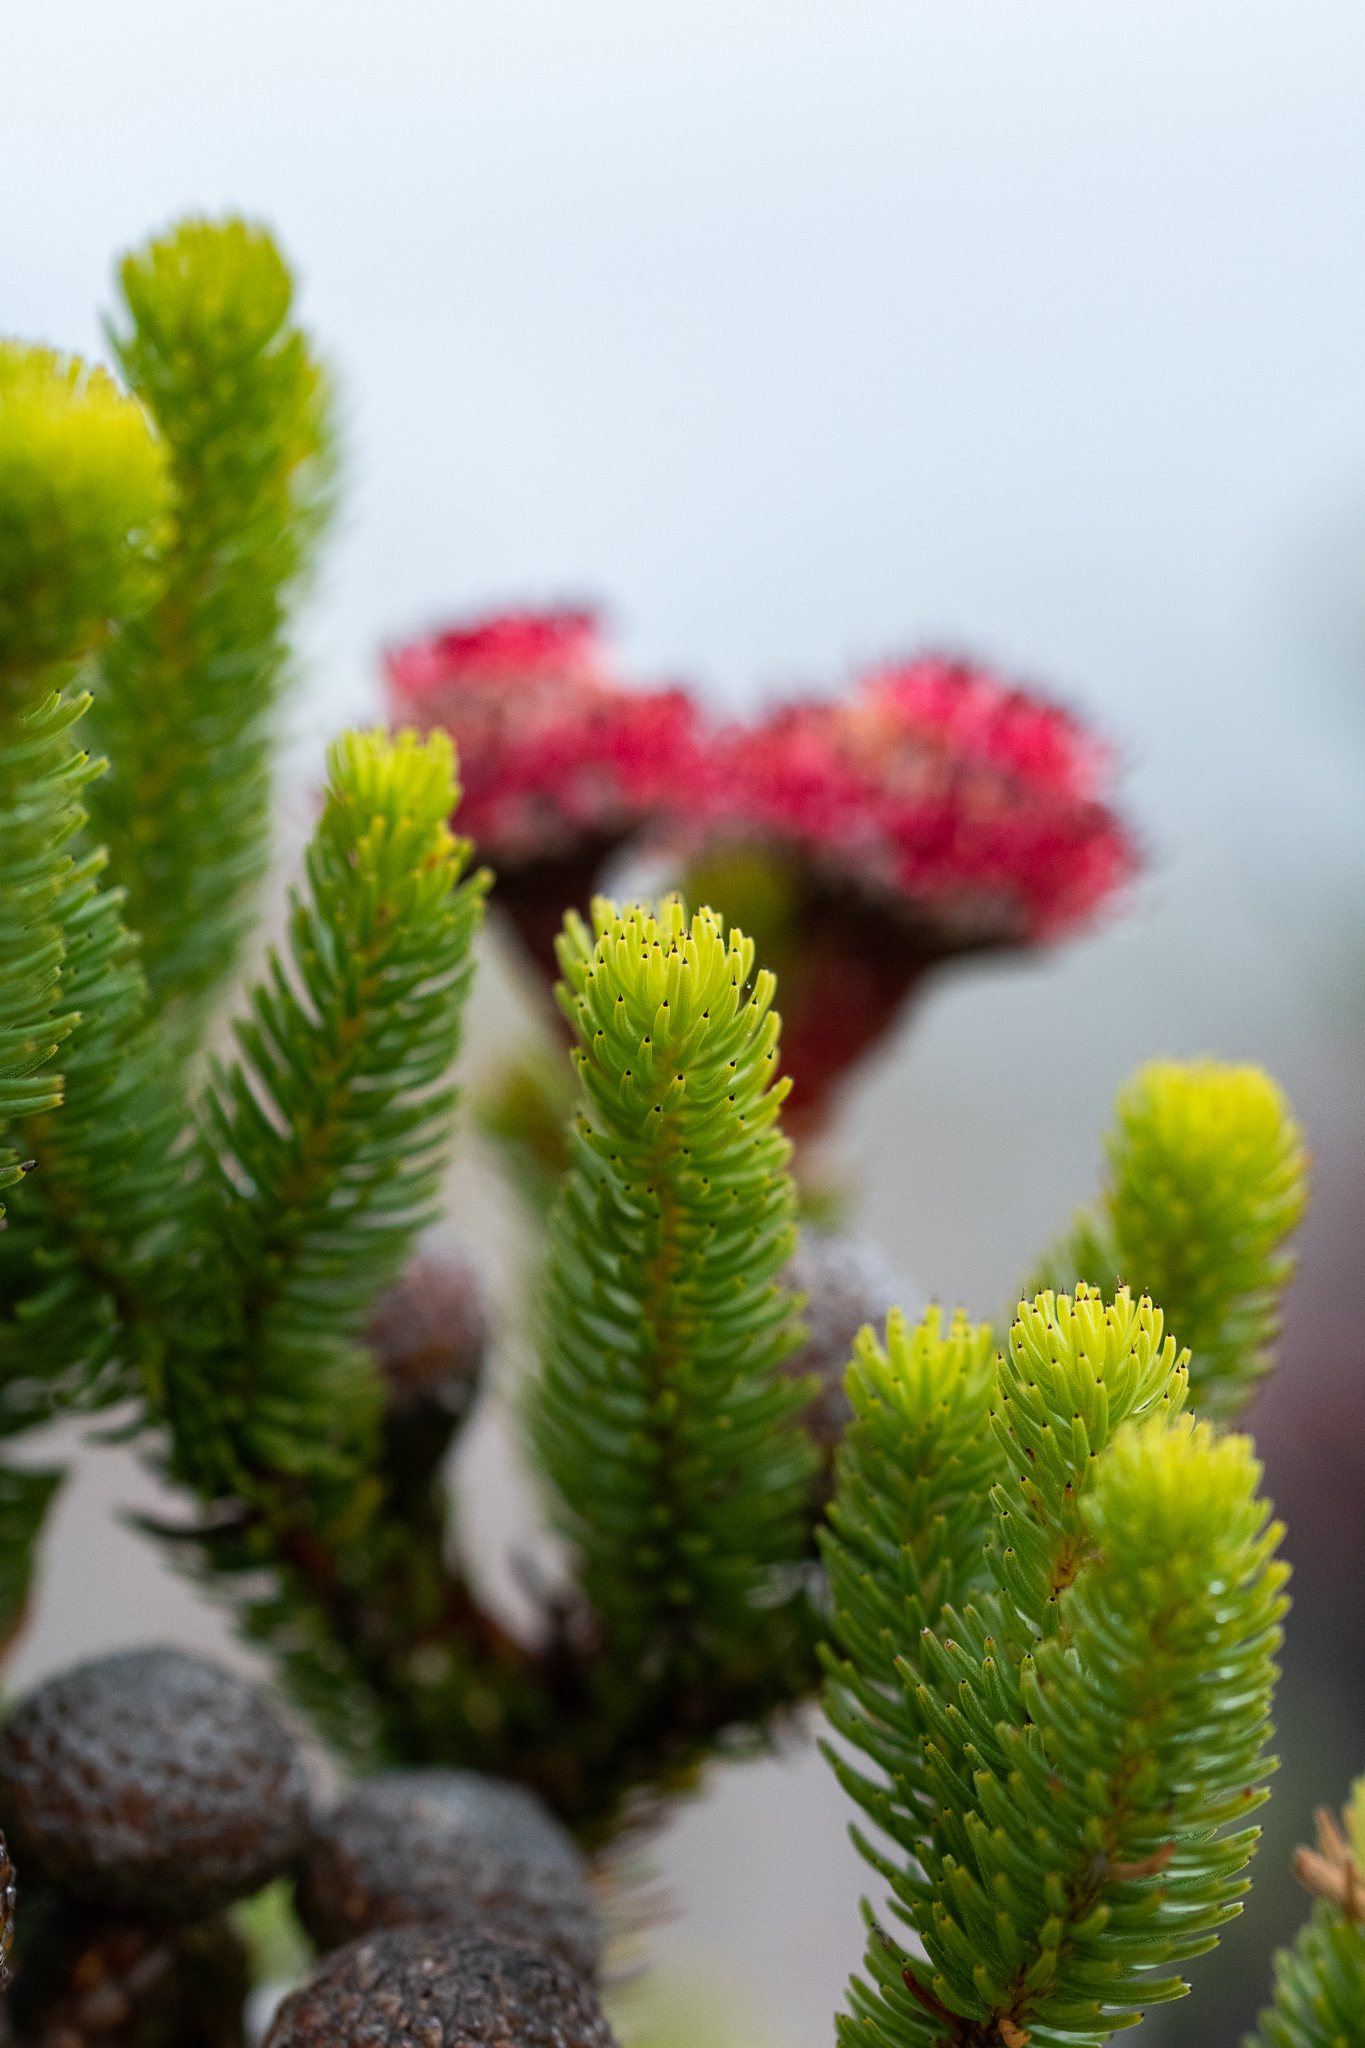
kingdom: Plantae
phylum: Tracheophyta
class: Magnoliopsida
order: Bruniales
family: Bruniaceae
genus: Berzelia
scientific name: Berzelia stokoei
